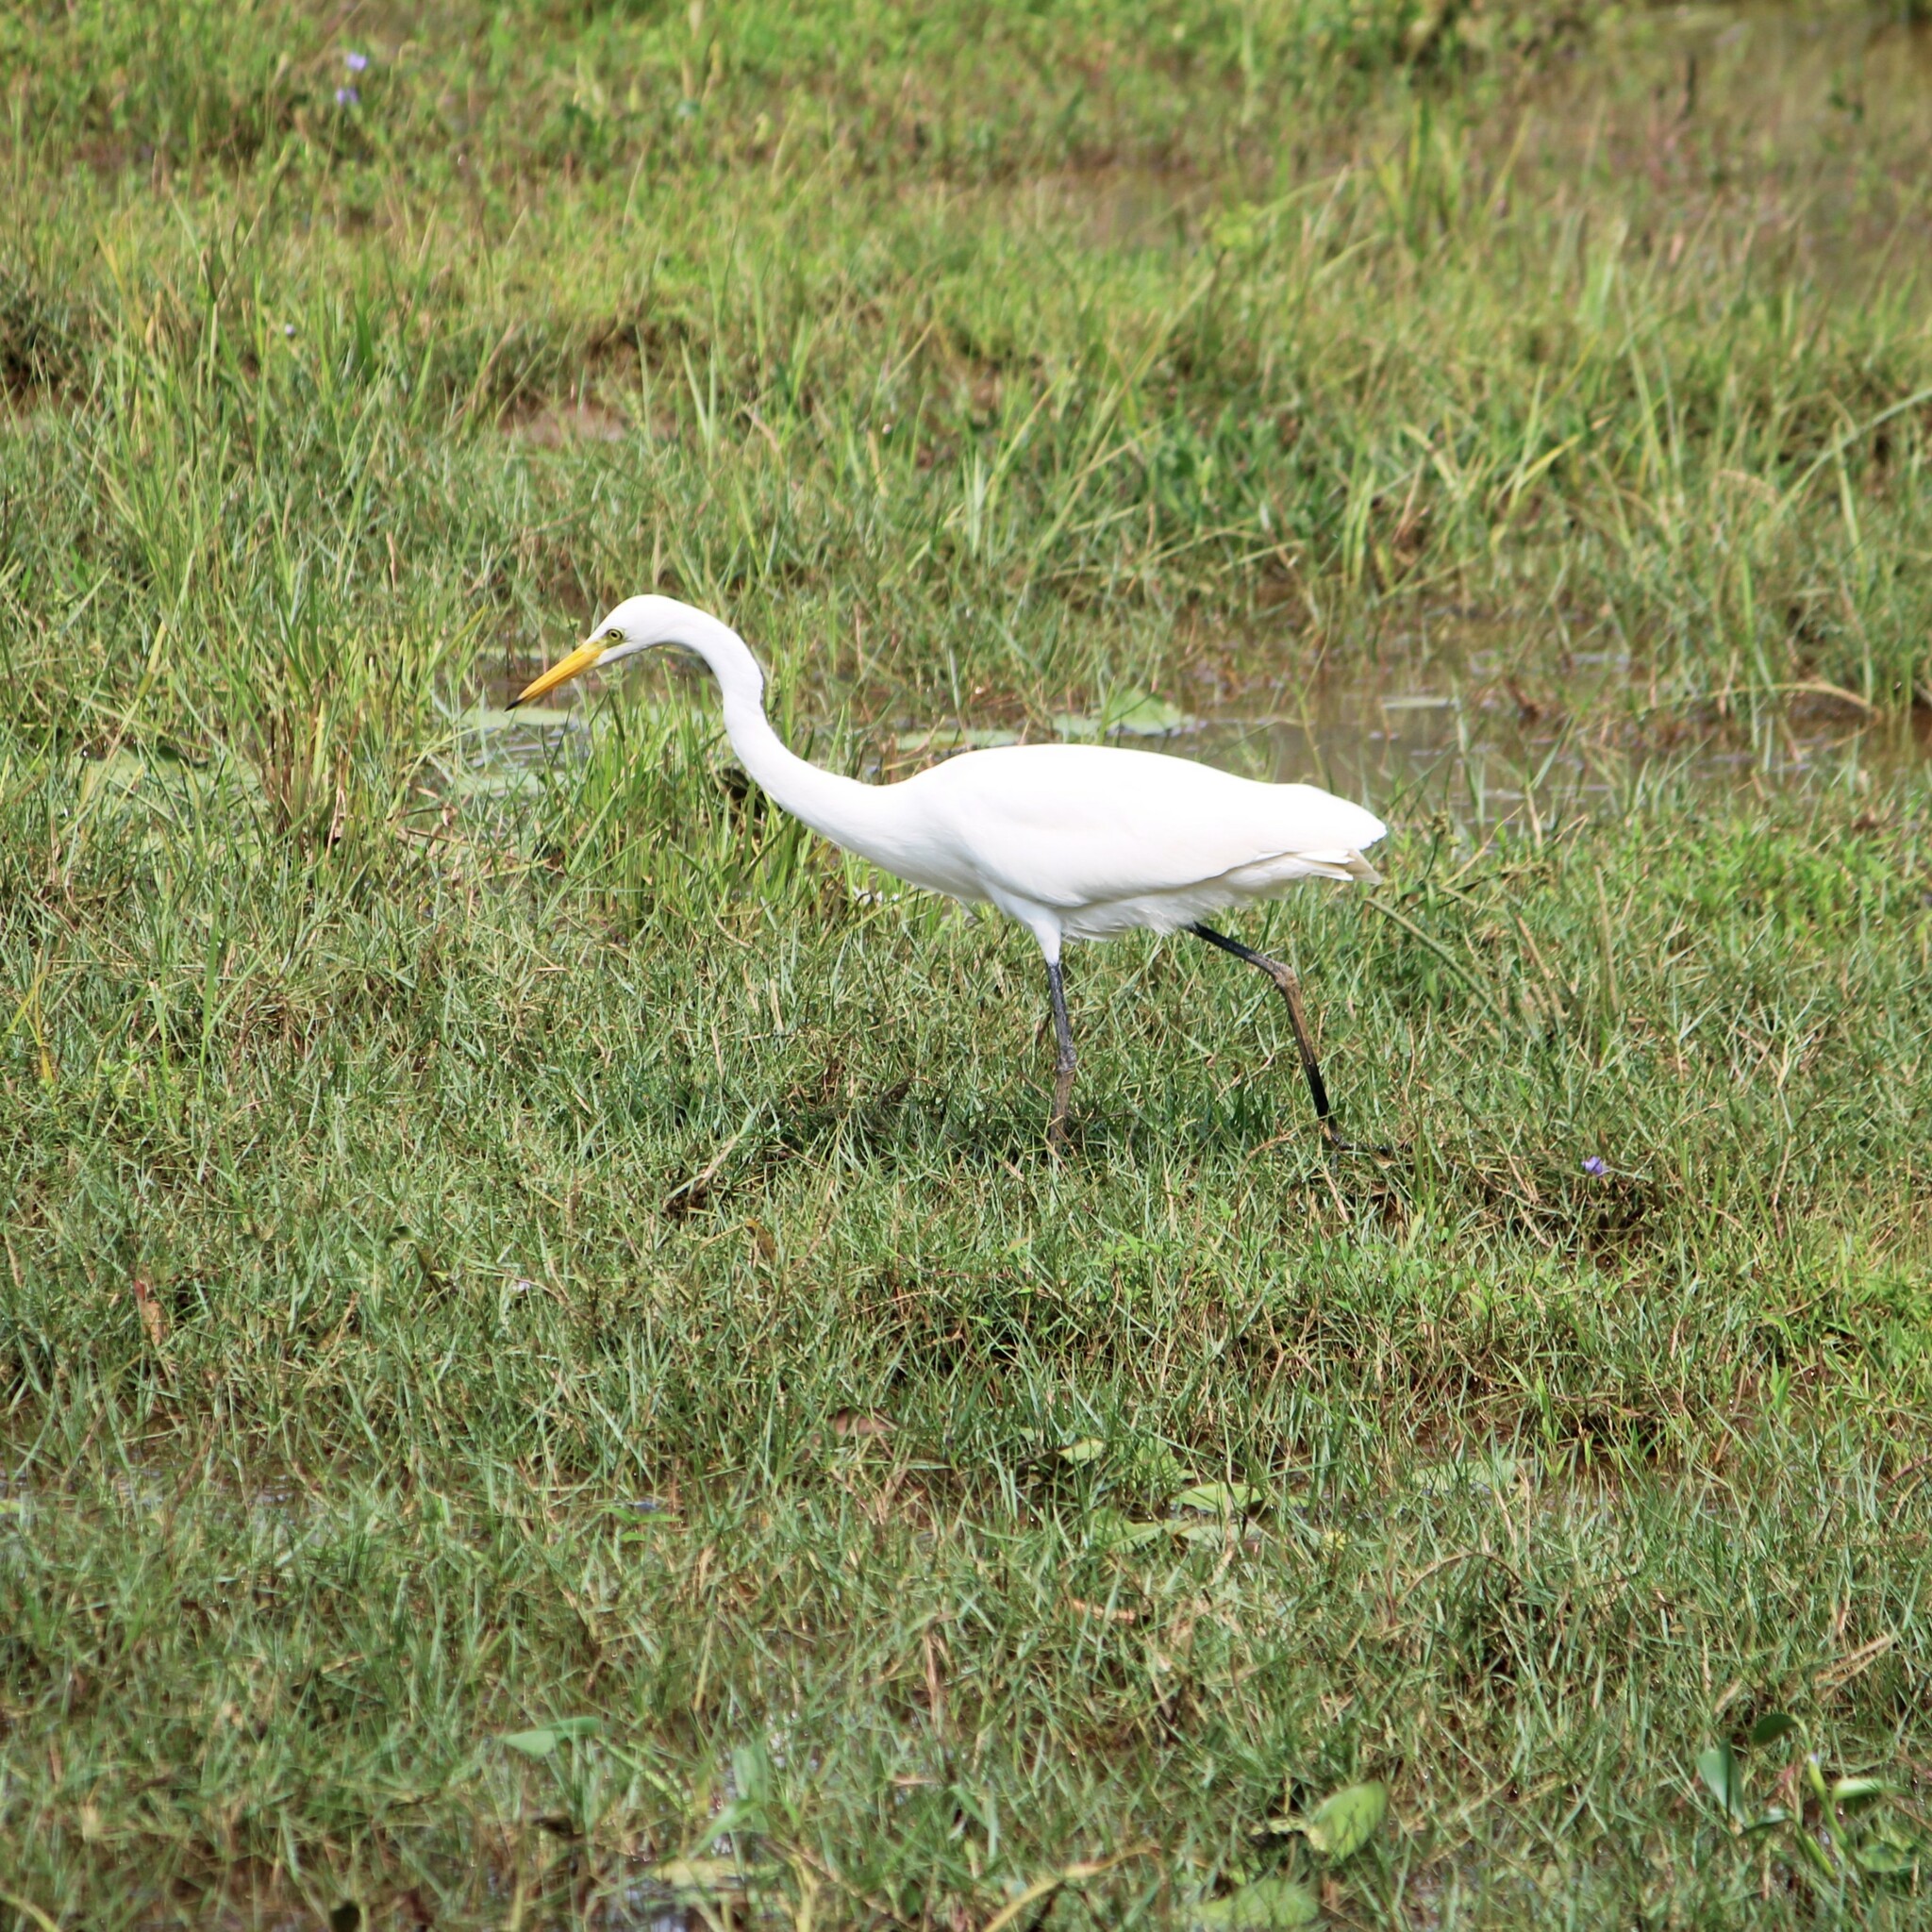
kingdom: Animalia
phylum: Chordata
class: Aves
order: Pelecaniformes
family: Ardeidae
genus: Egretta
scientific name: Egretta intermedia
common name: Intermediate egret
